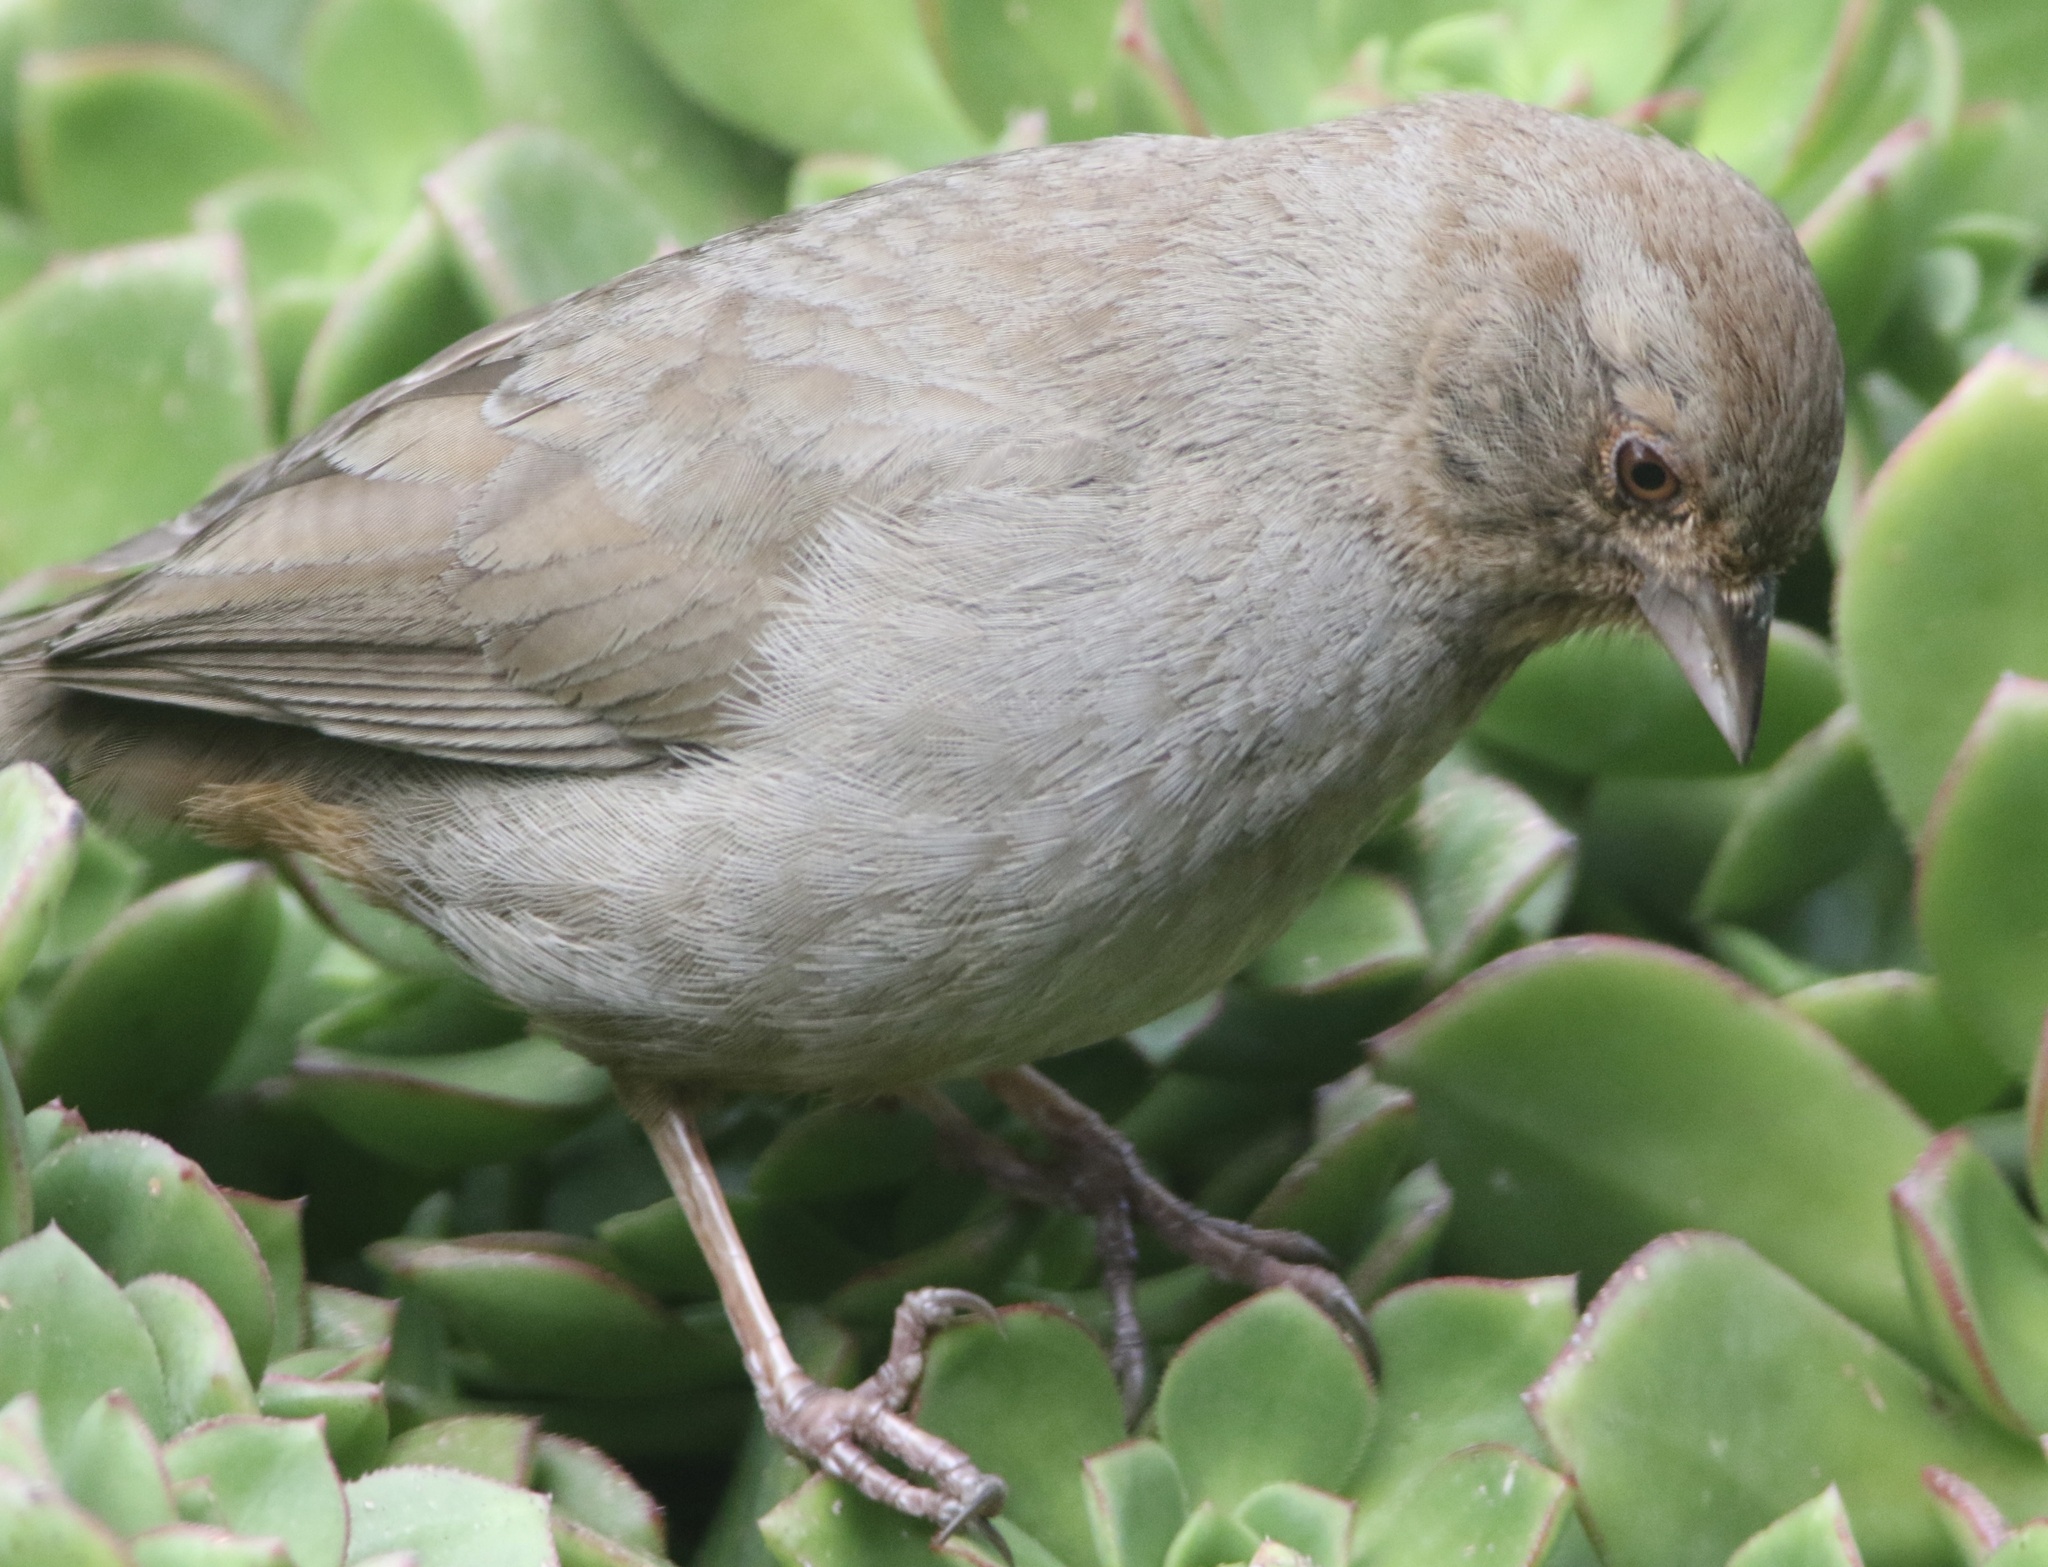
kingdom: Animalia
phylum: Chordata
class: Aves
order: Passeriformes
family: Passerellidae
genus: Melozone
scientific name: Melozone crissalis
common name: California towhee
